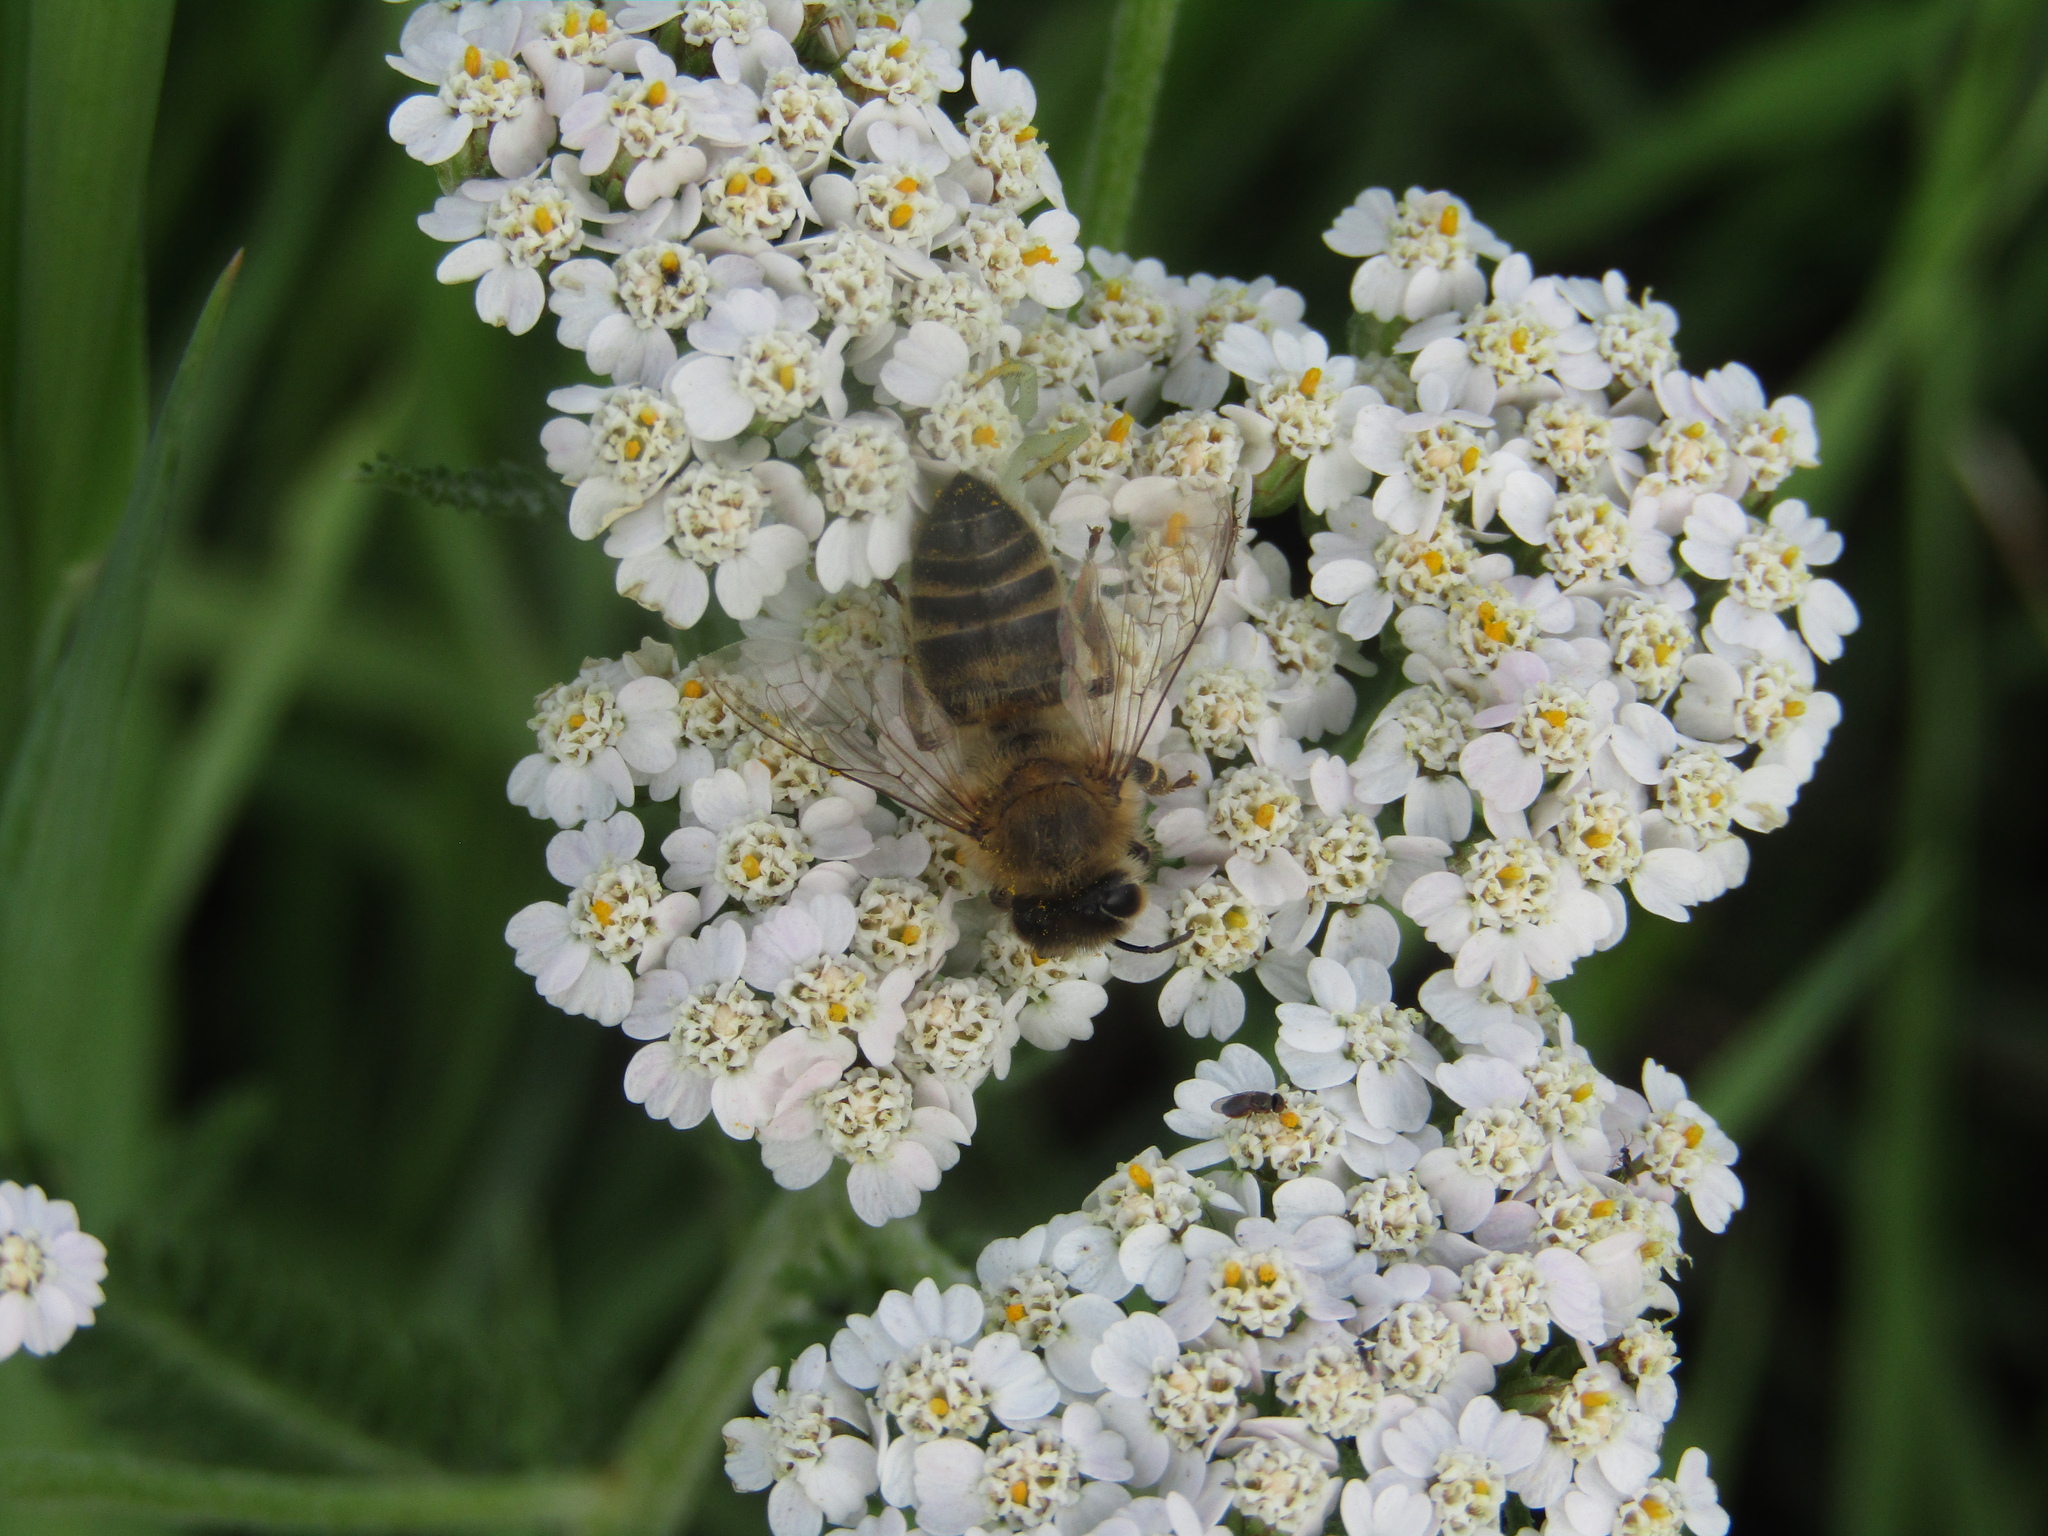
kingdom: Animalia
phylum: Arthropoda
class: Insecta
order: Hymenoptera
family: Apidae
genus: Apis
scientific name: Apis mellifera
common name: Honey bee
